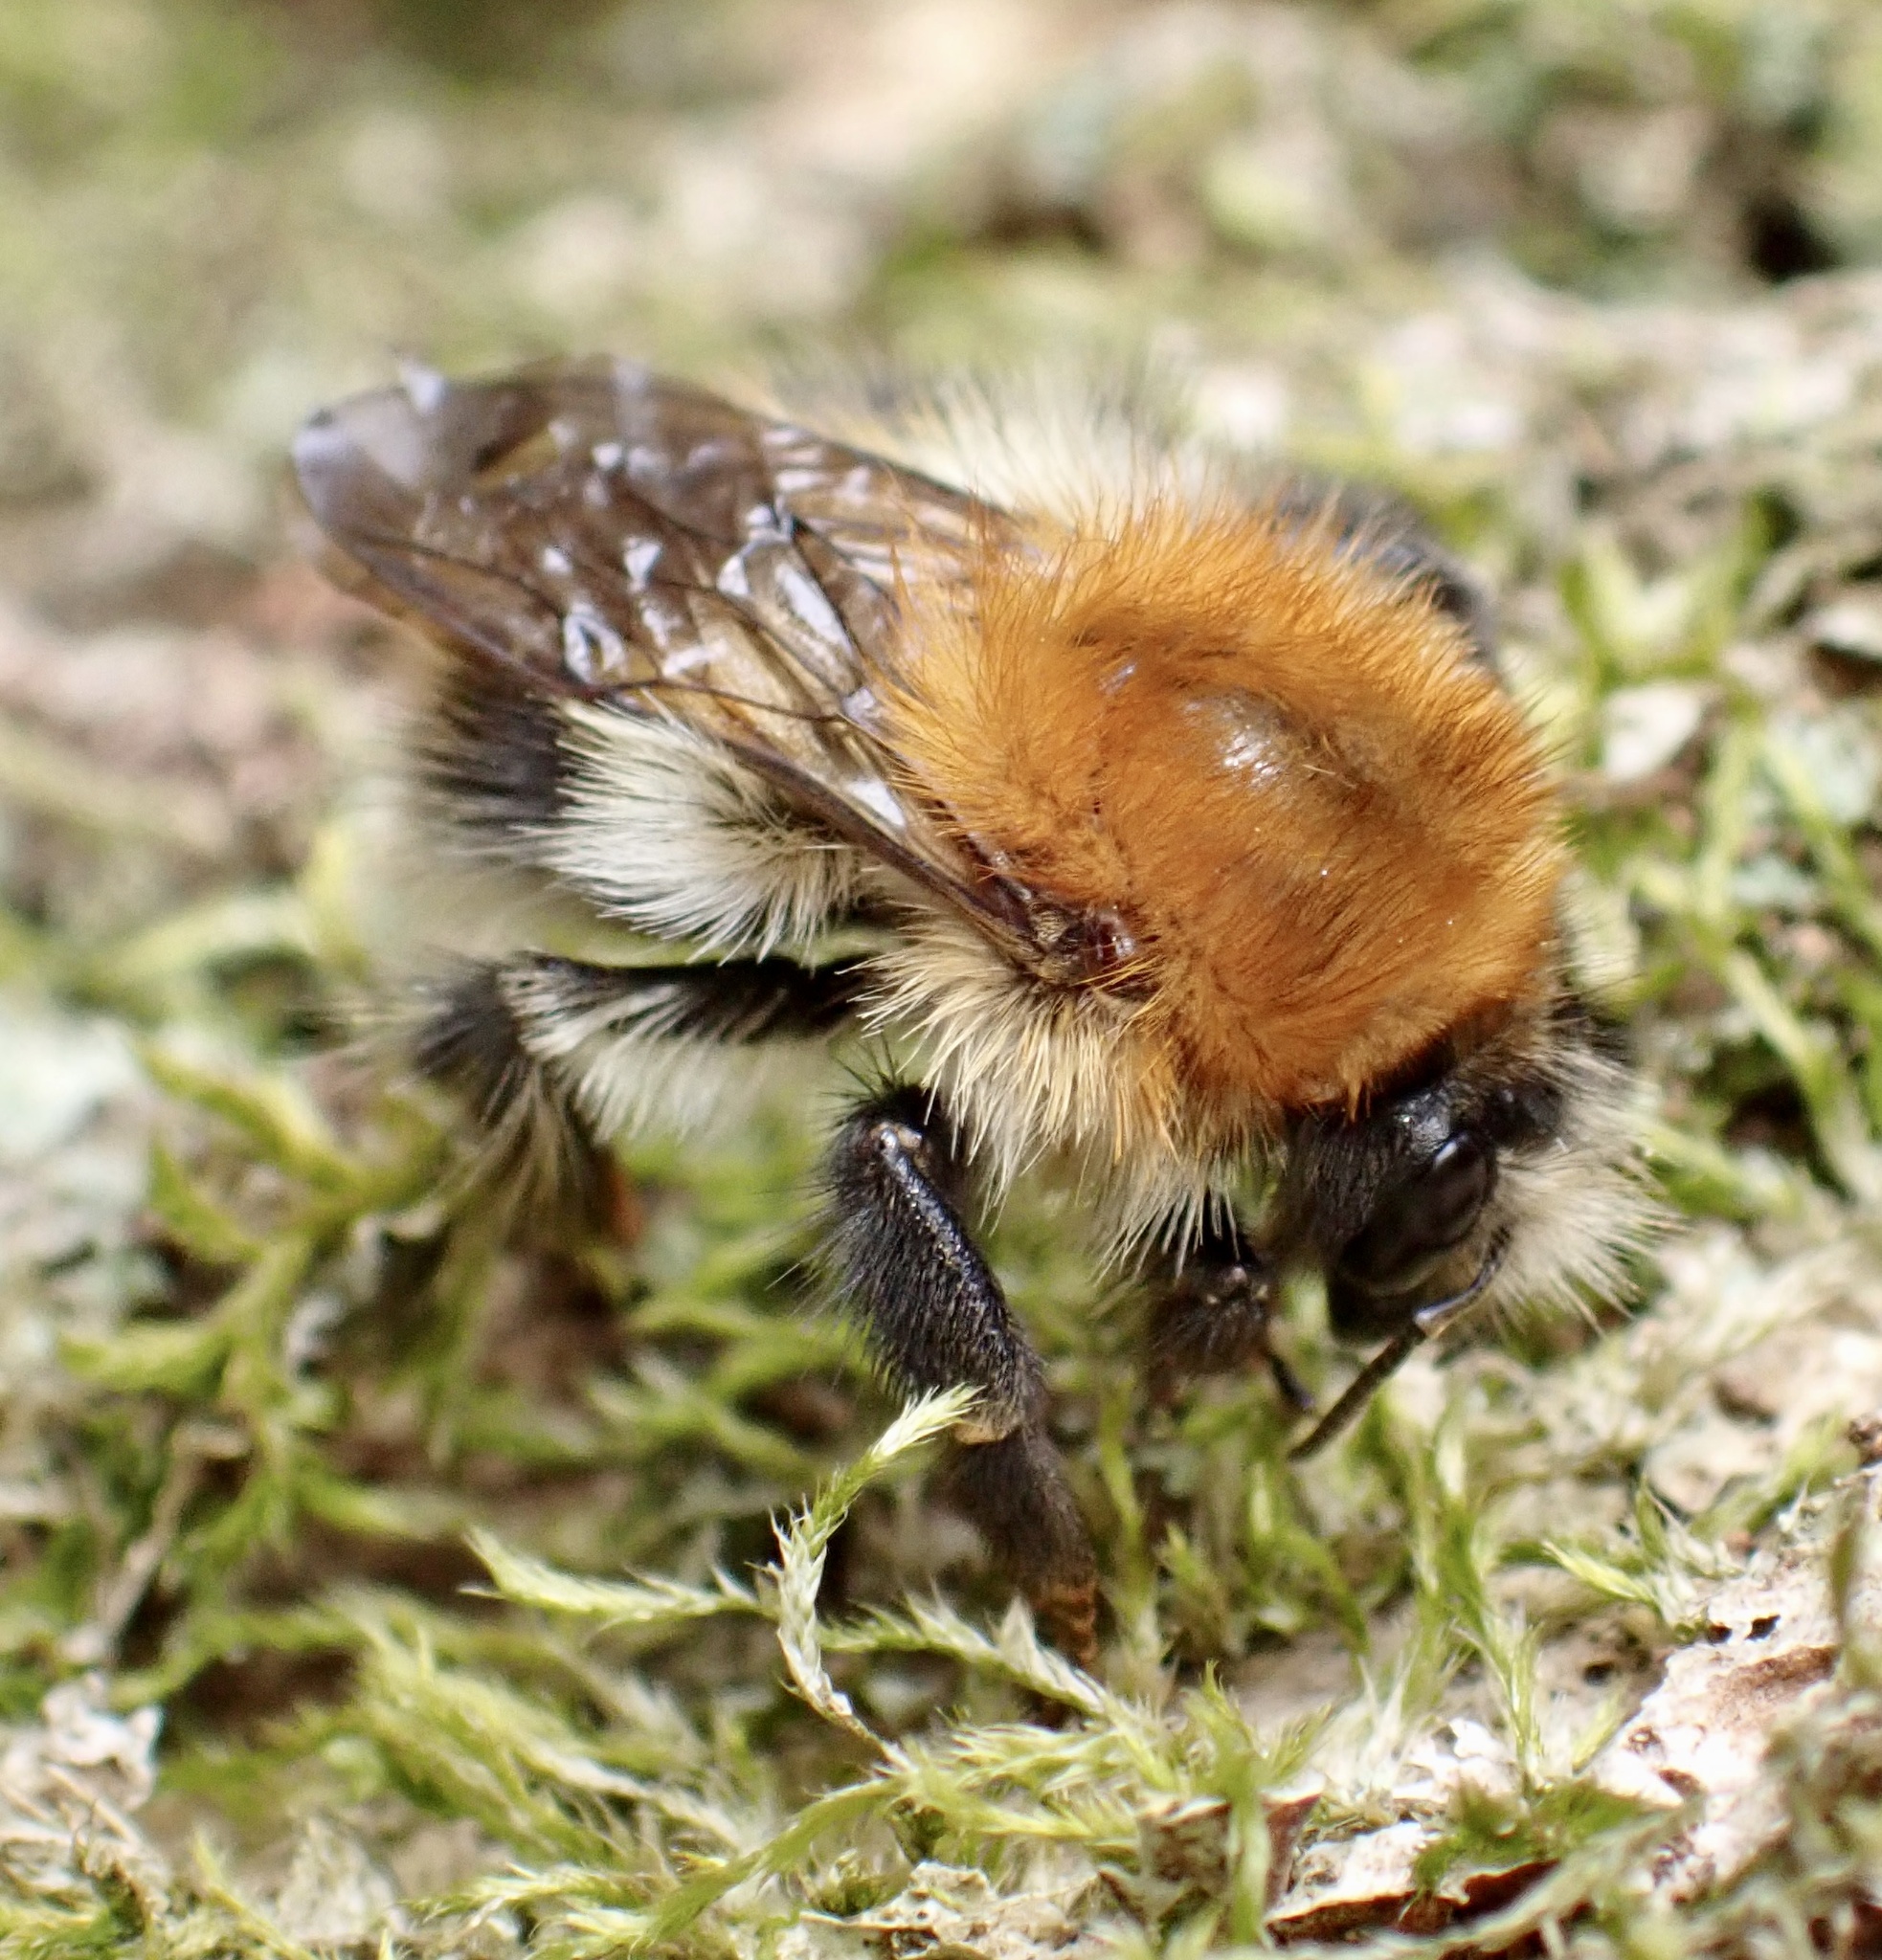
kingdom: Animalia
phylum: Arthropoda
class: Insecta
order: Hymenoptera
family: Apidae
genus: Bombus
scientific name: Bombus pascuorum
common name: Common carder bee
